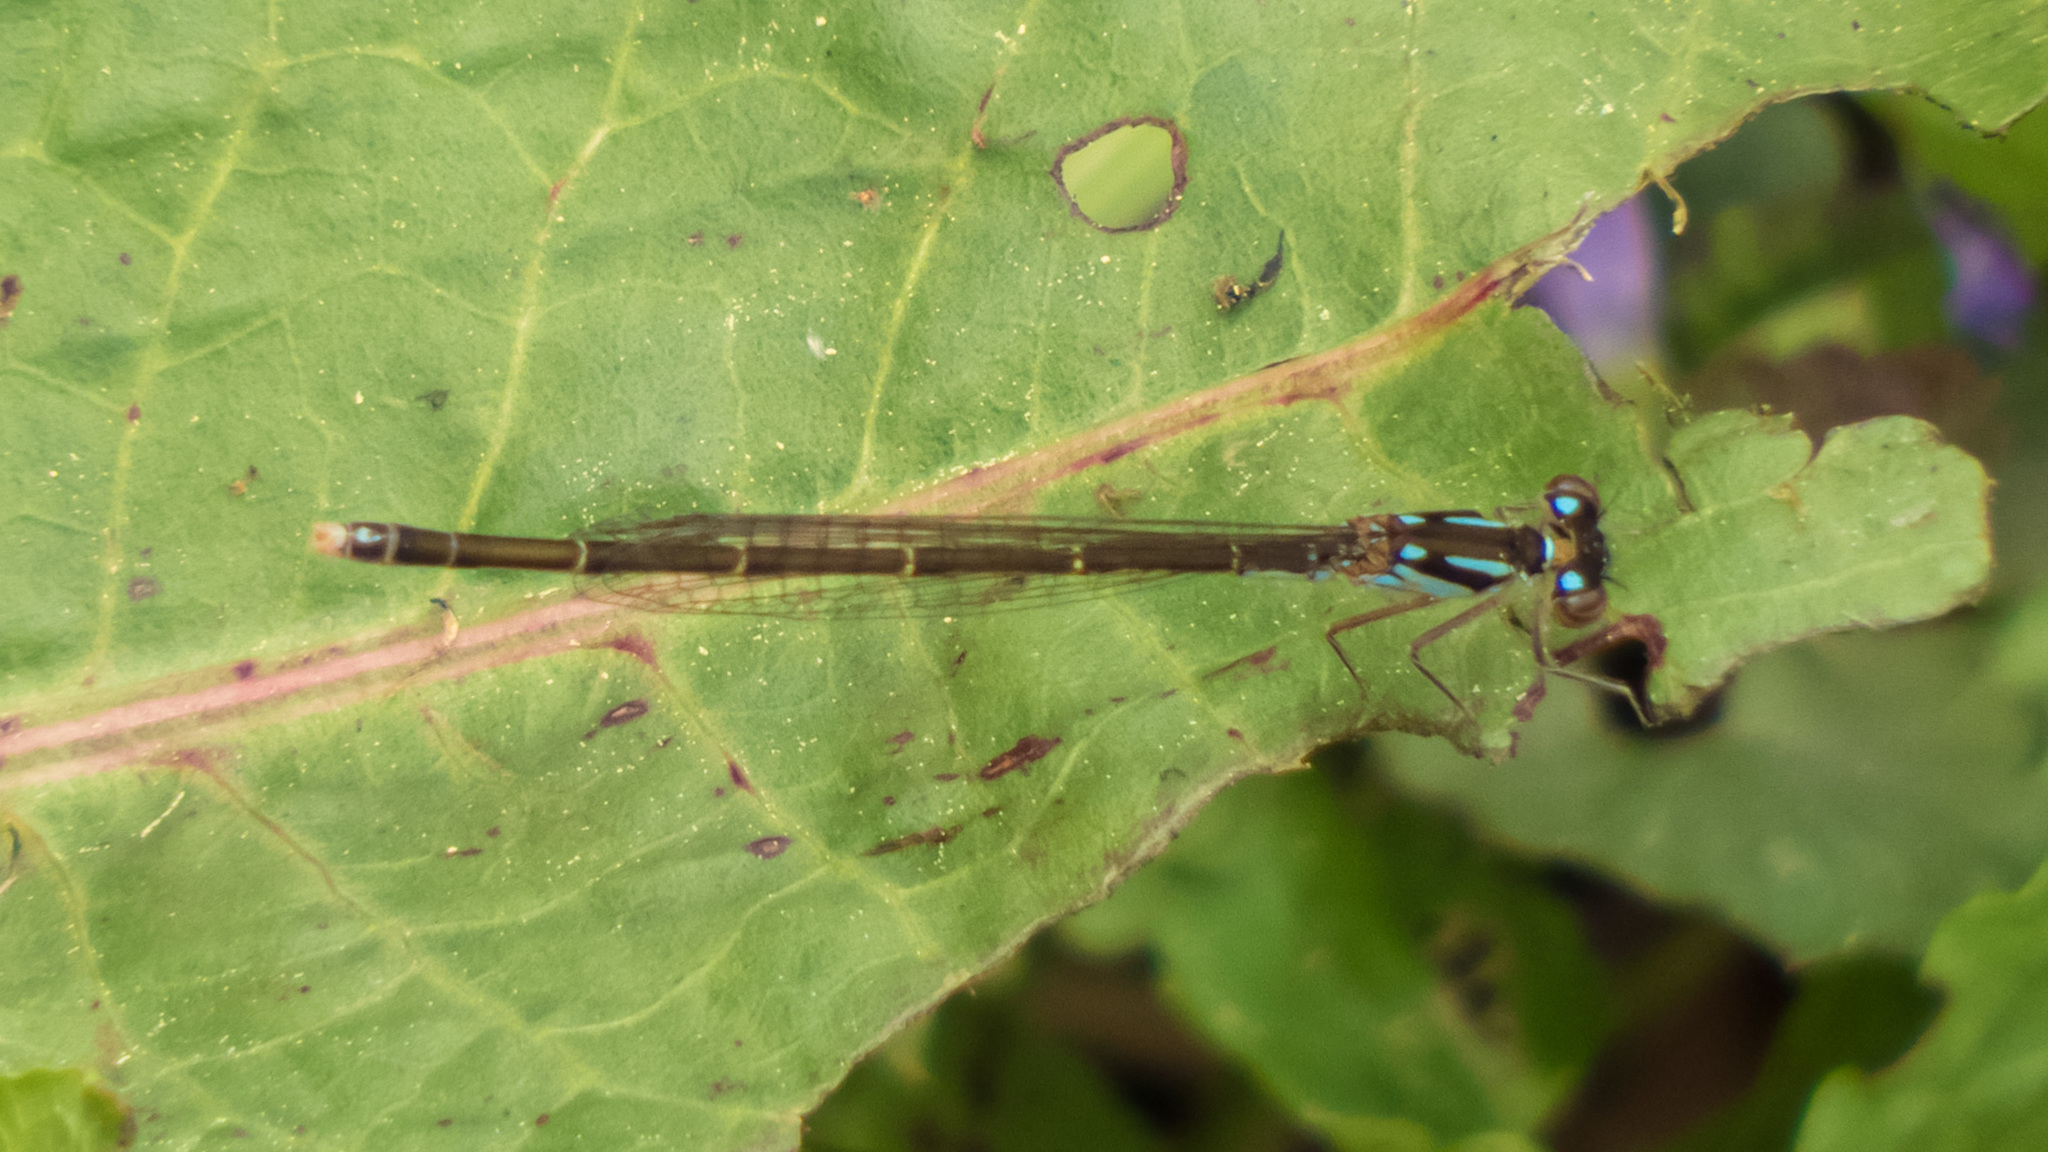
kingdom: Animalia
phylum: Arthropoda
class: Insecta
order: Odonata
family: Coenagrionidae
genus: Ischnura
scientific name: Ischnura posita
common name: Fragile forktail
